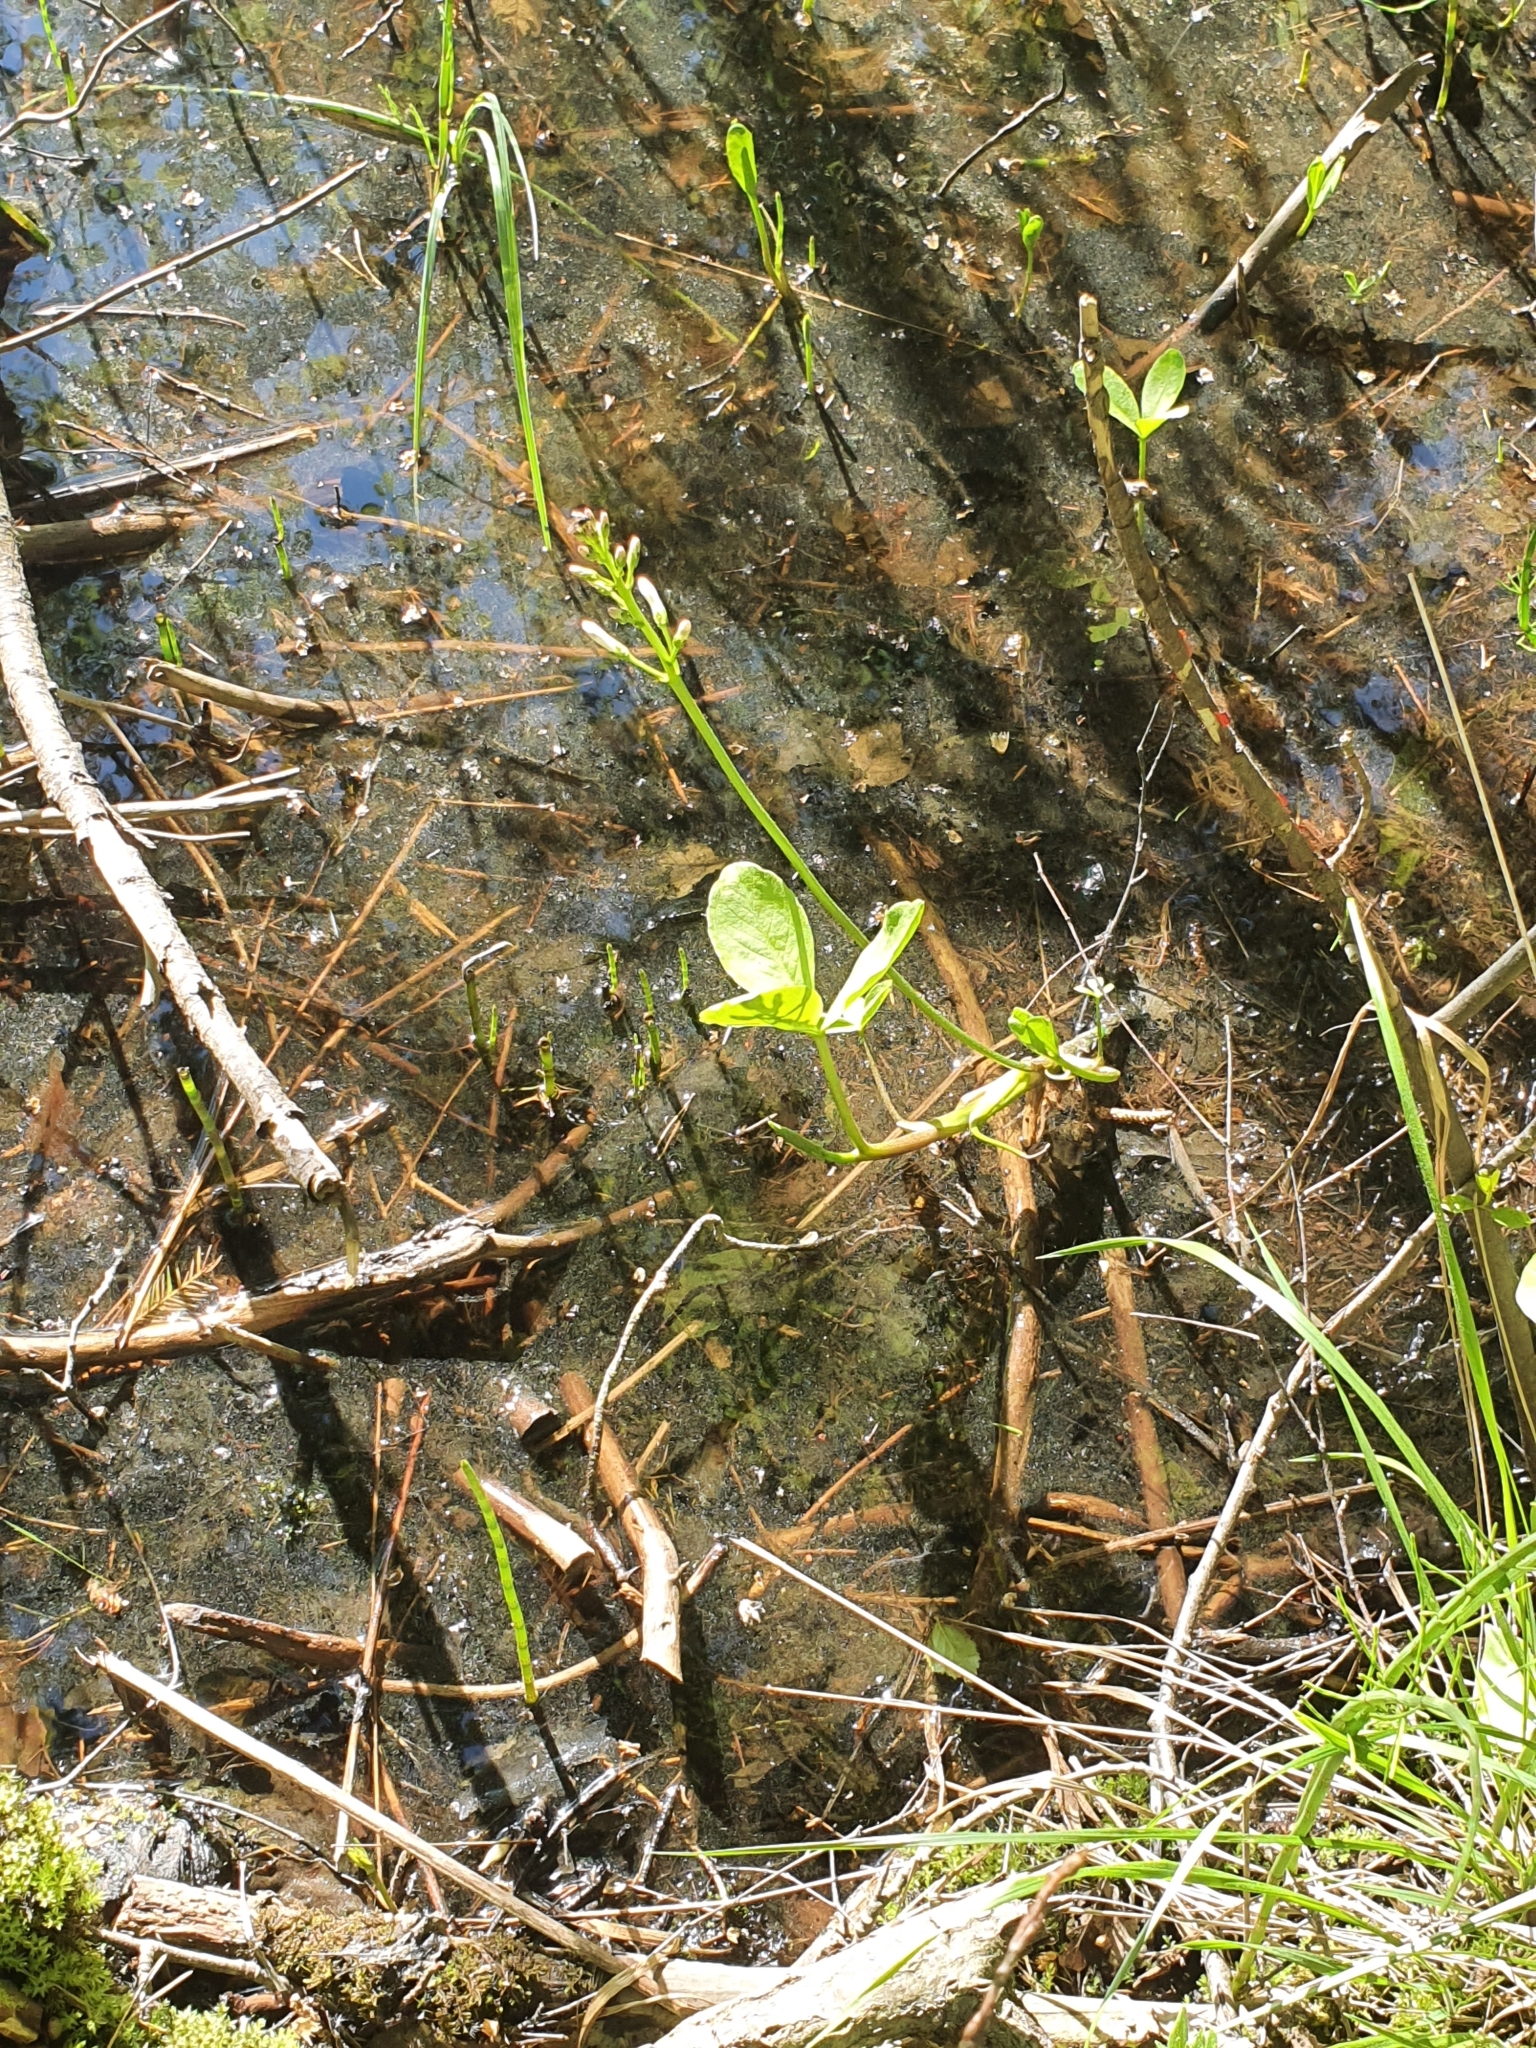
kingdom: Plantae
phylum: Tracheophyta
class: Magnoliopsida
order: Asterales
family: Menyanthaceae
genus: Menyanthes
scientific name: Menyanthes trifoliata
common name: Bogbean
